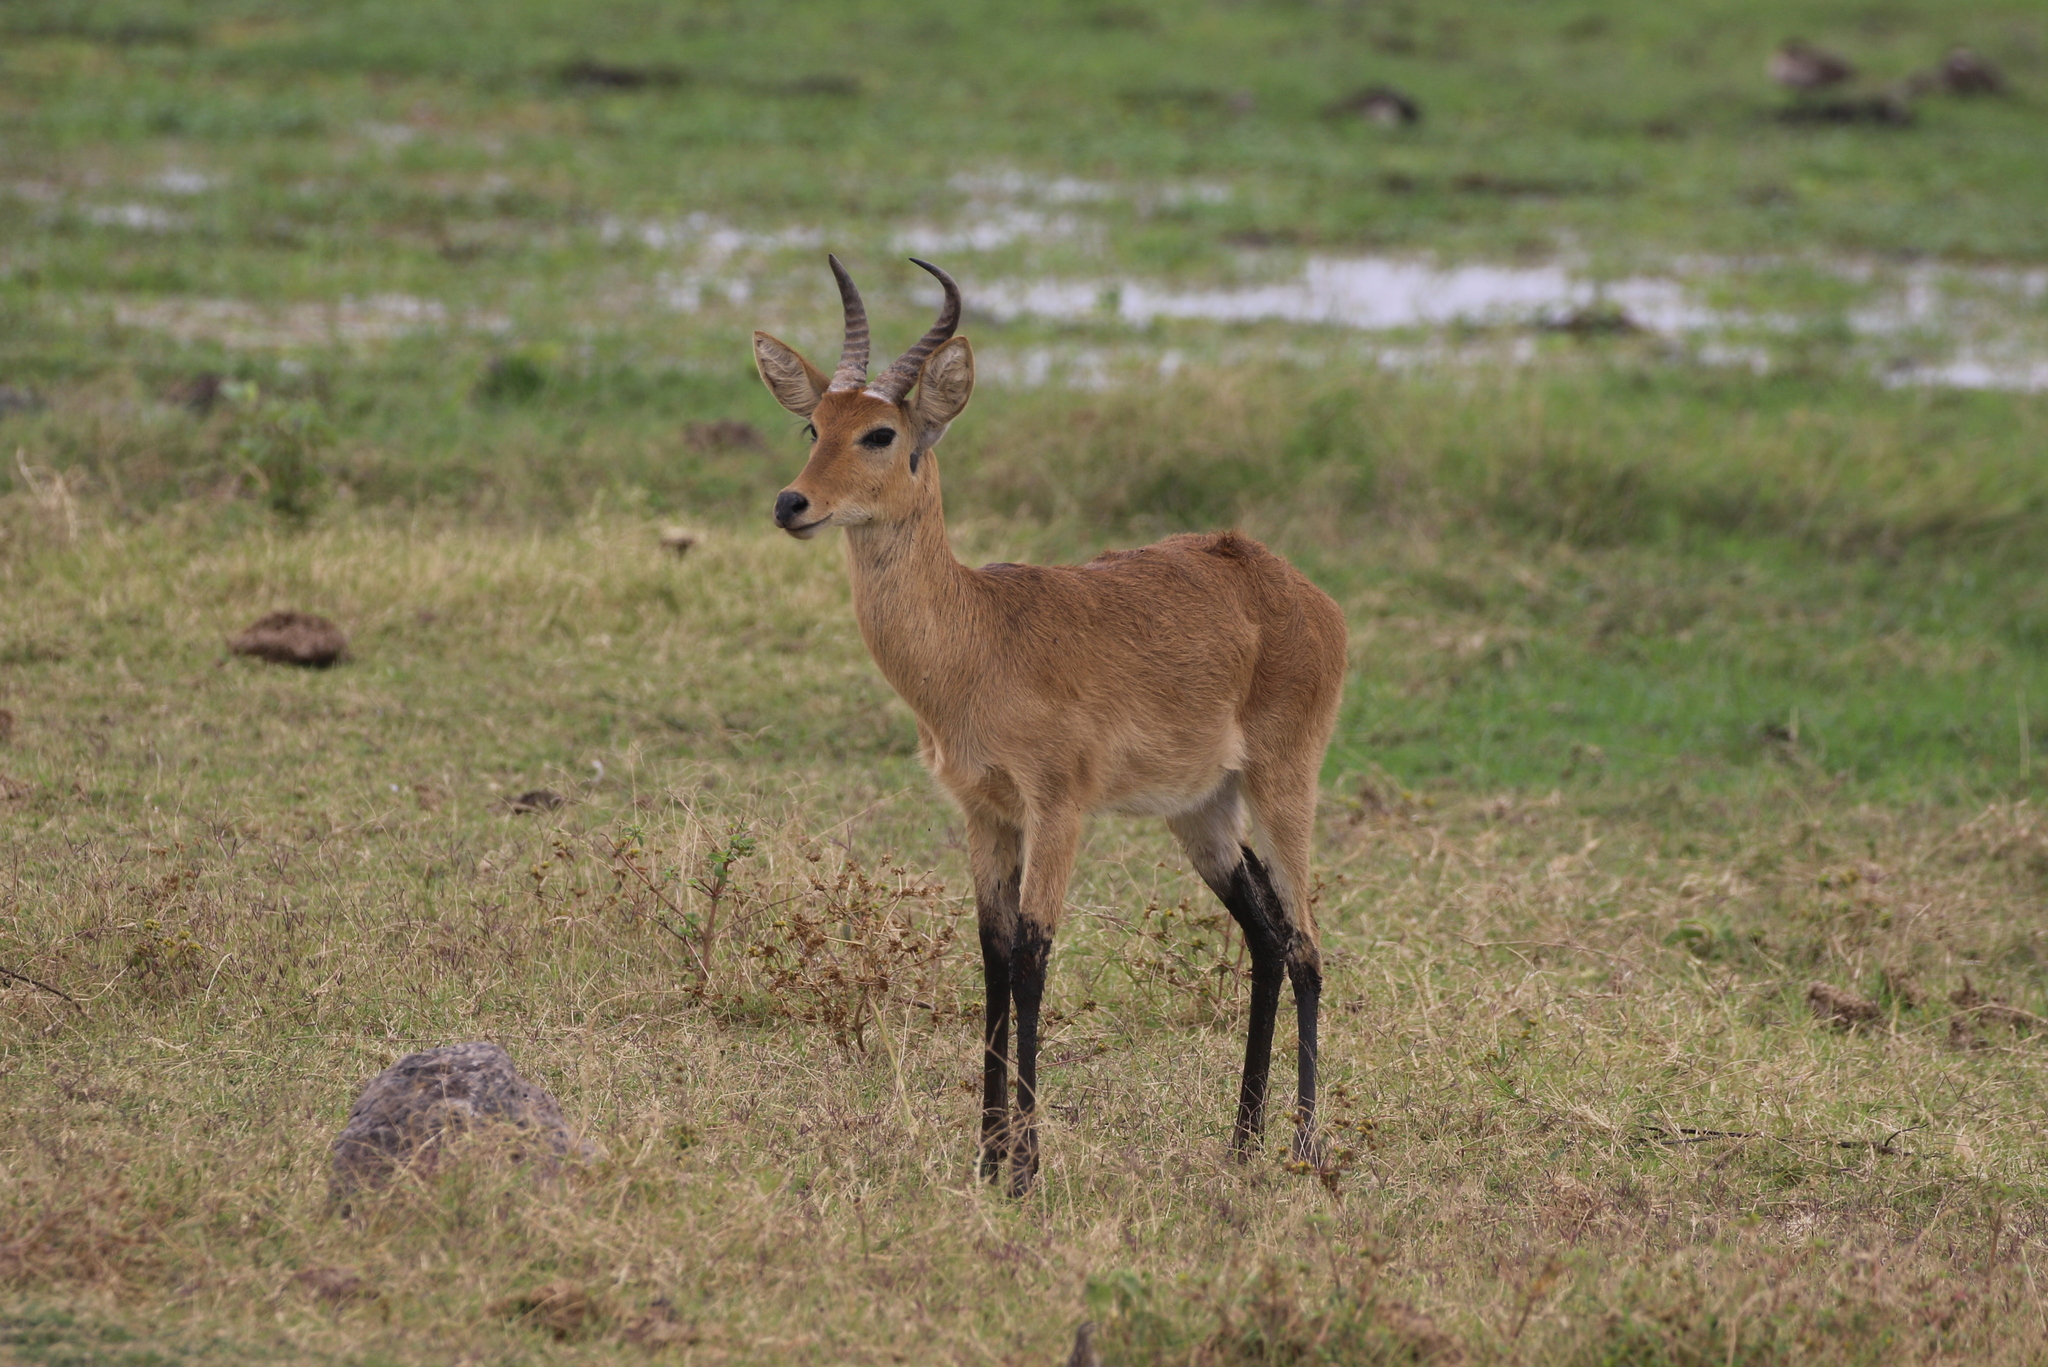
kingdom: Animalia
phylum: Chordata
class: Mammalia
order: Artiodactyla
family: Bovidae
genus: Redunca
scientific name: Redunca redunca
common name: Common reedbuck
